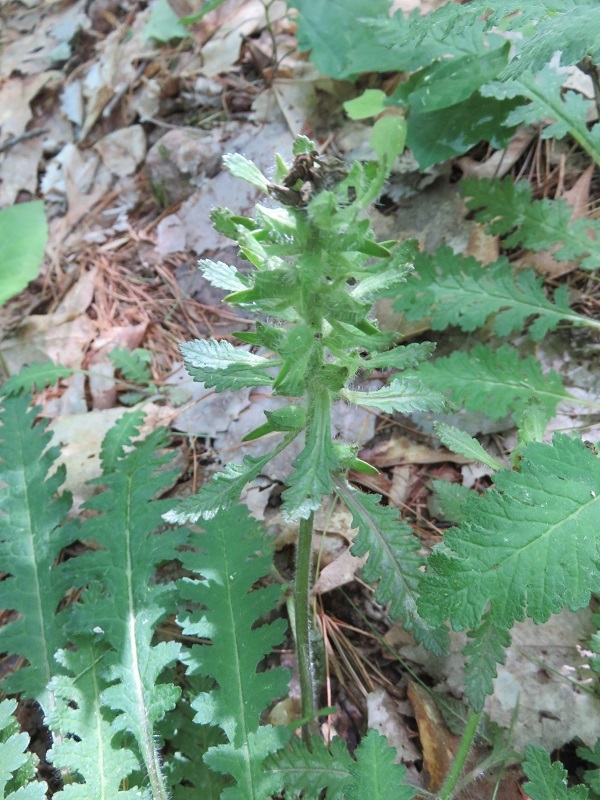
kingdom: Plantae
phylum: Tracheophyta
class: Magnoliopsida
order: Lamiales
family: Orobanchaceae
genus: Pedicularis
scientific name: Pedicularis canadensis
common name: Early lousewort
